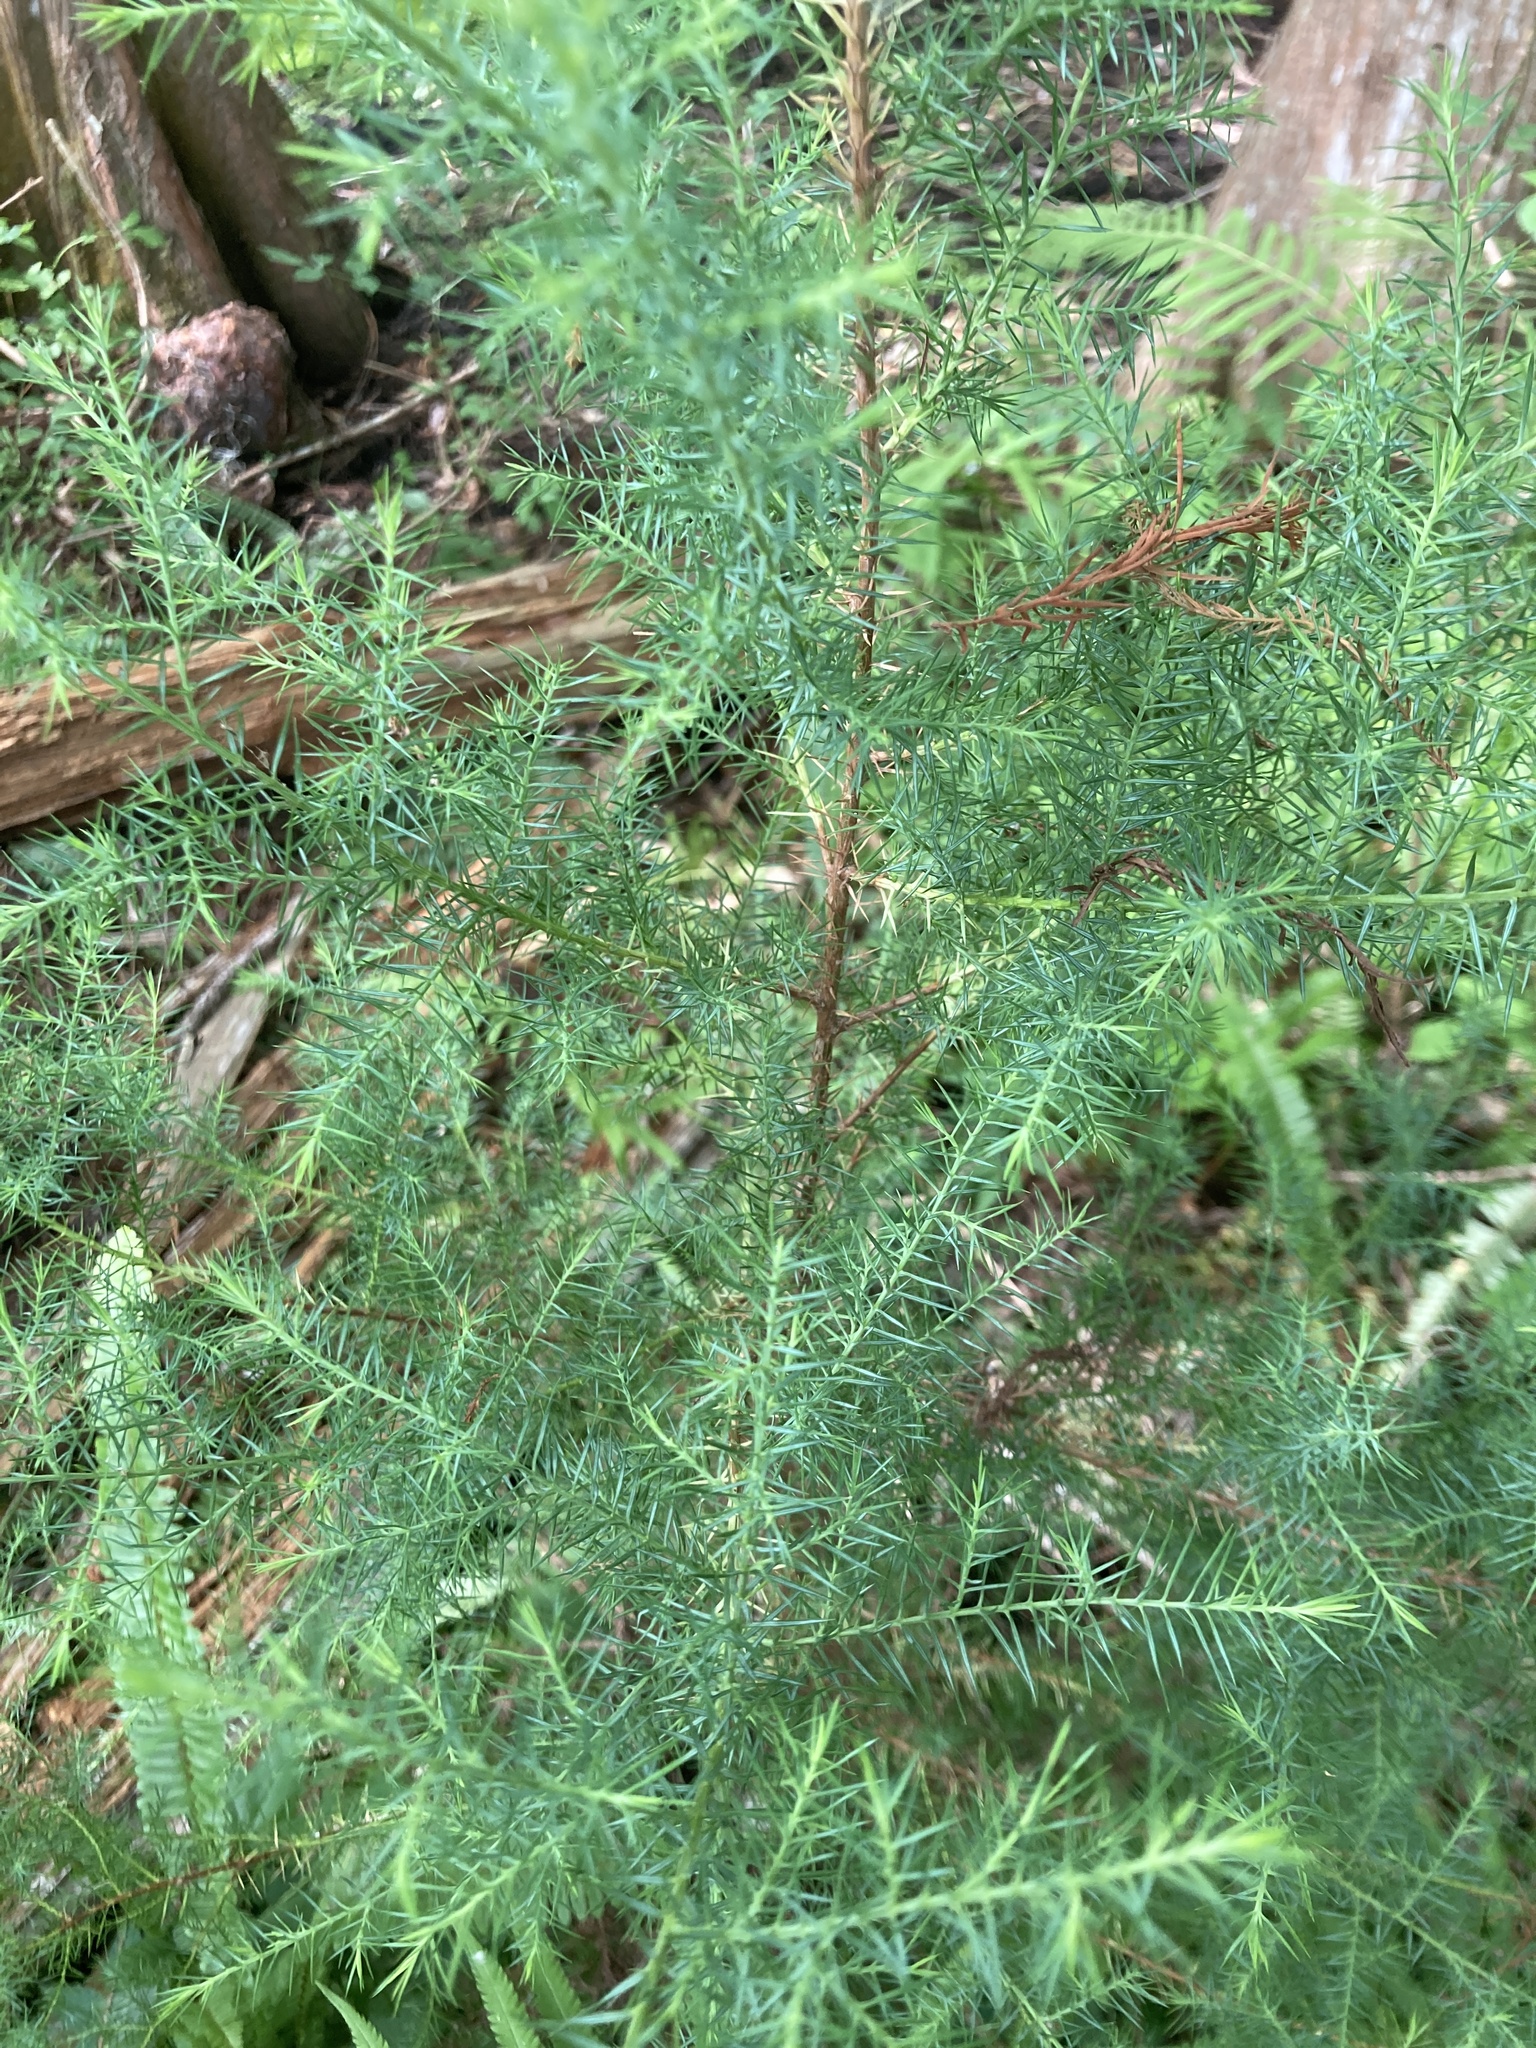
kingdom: Plantae
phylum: Tracheophyta
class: Pinopsida
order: Pinales
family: Cupressaceae
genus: Juniperus
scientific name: Juniperus virginiana
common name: Red juniper
